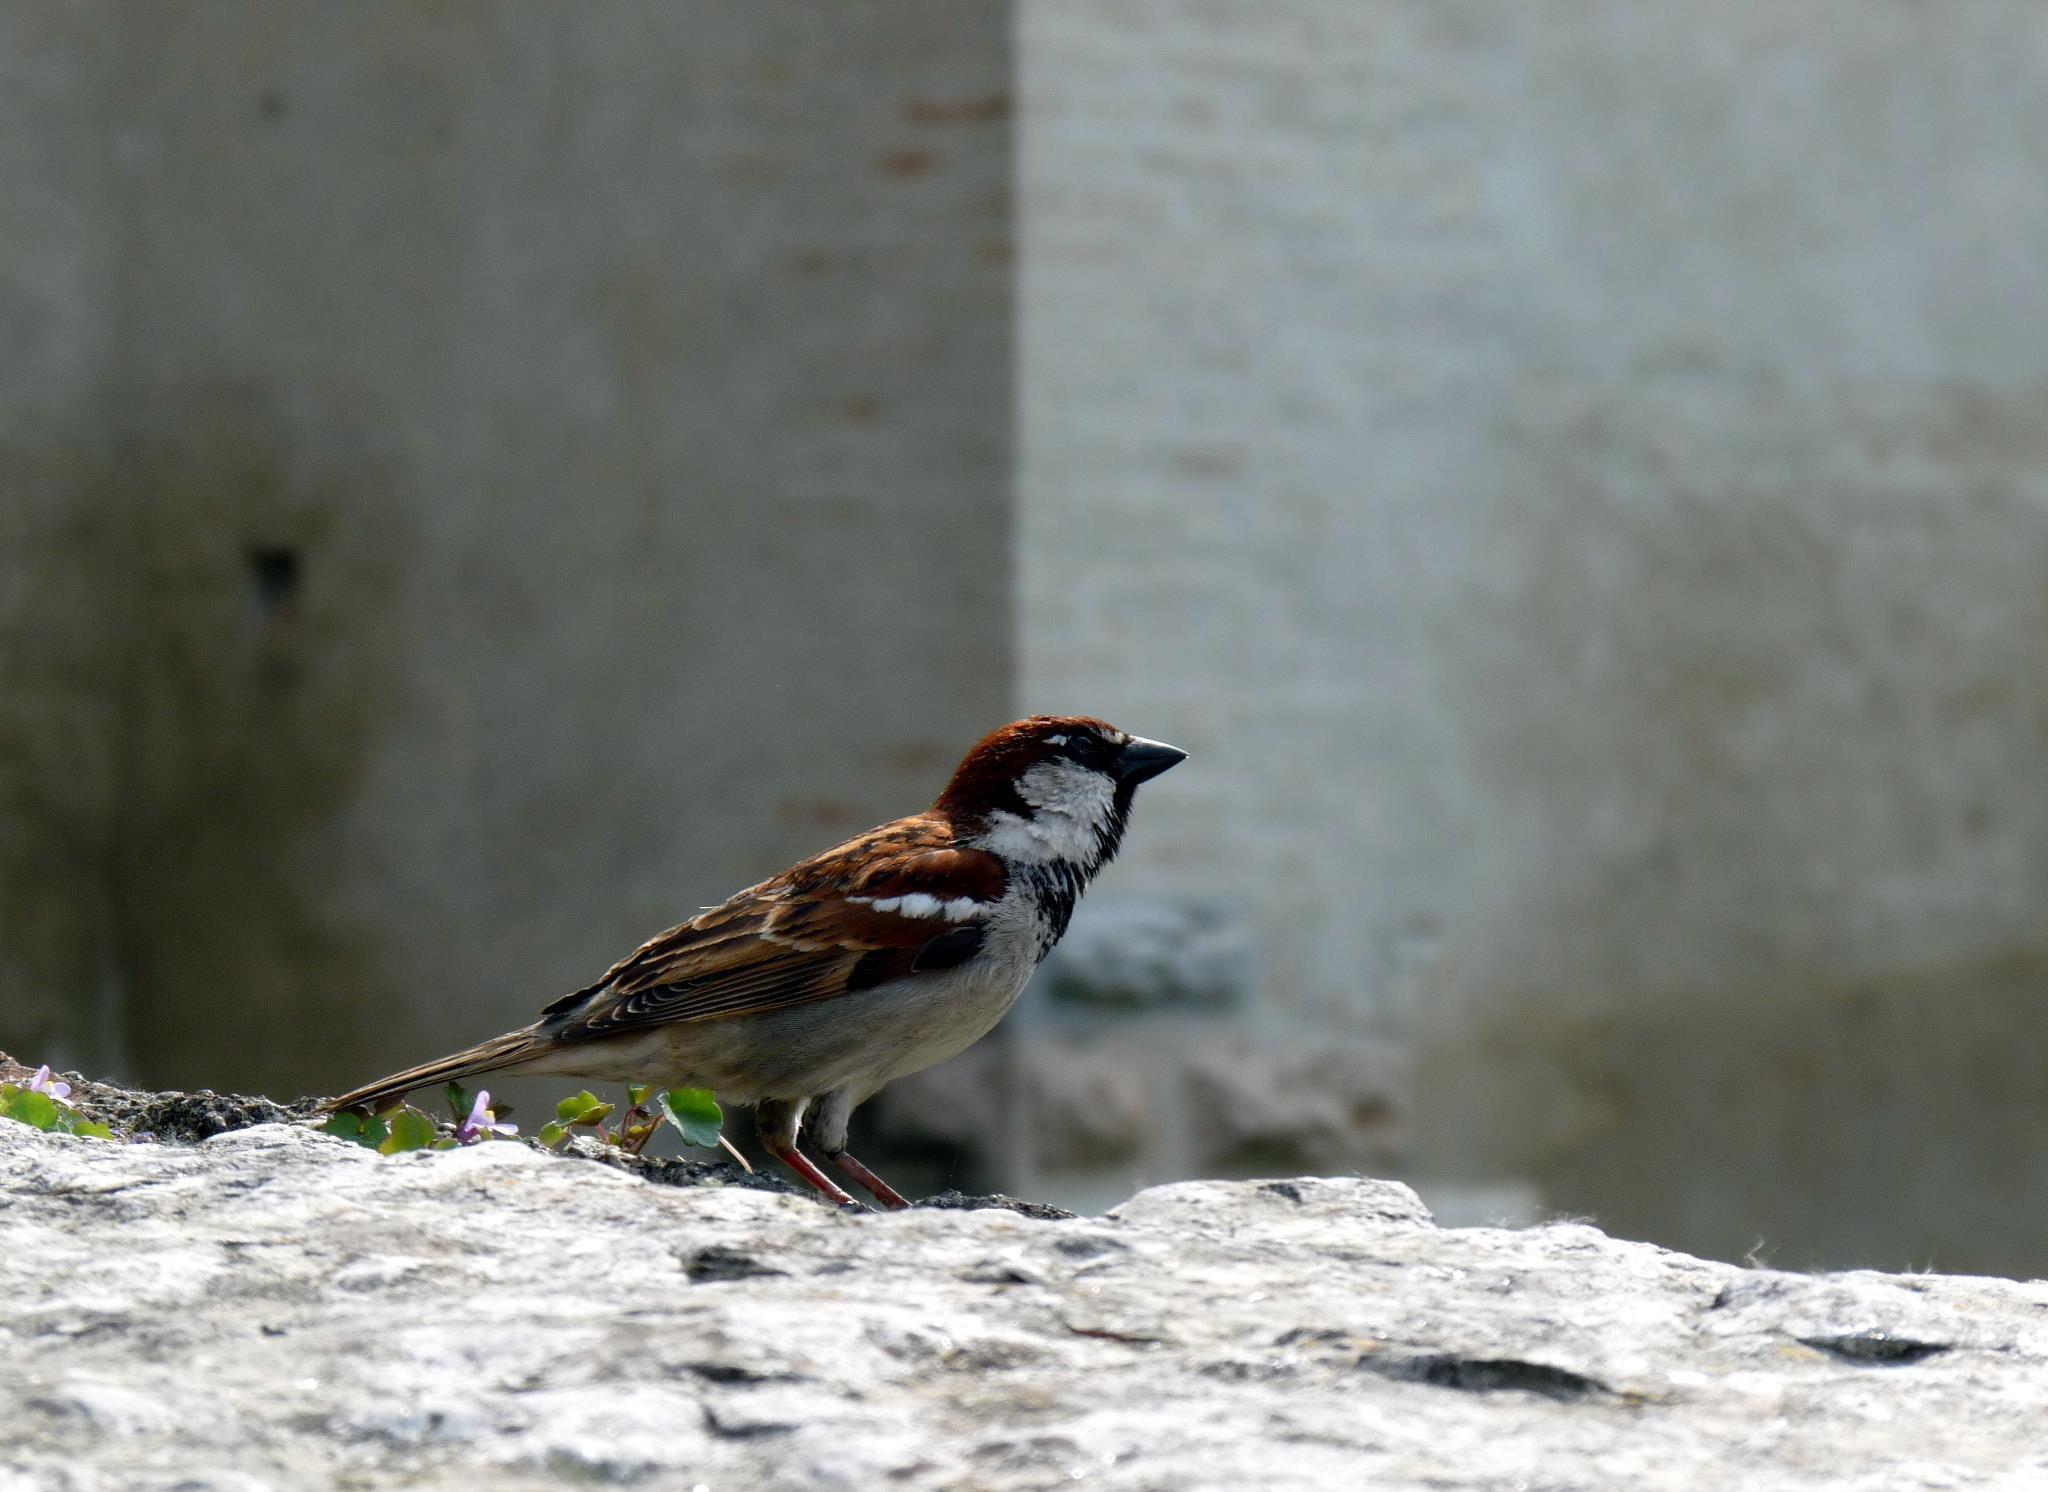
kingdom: Animalia
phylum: Chordata
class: Aves
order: Passeriformes
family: Passeridae
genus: Passer
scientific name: Passer italiae
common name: Italian sparrow
